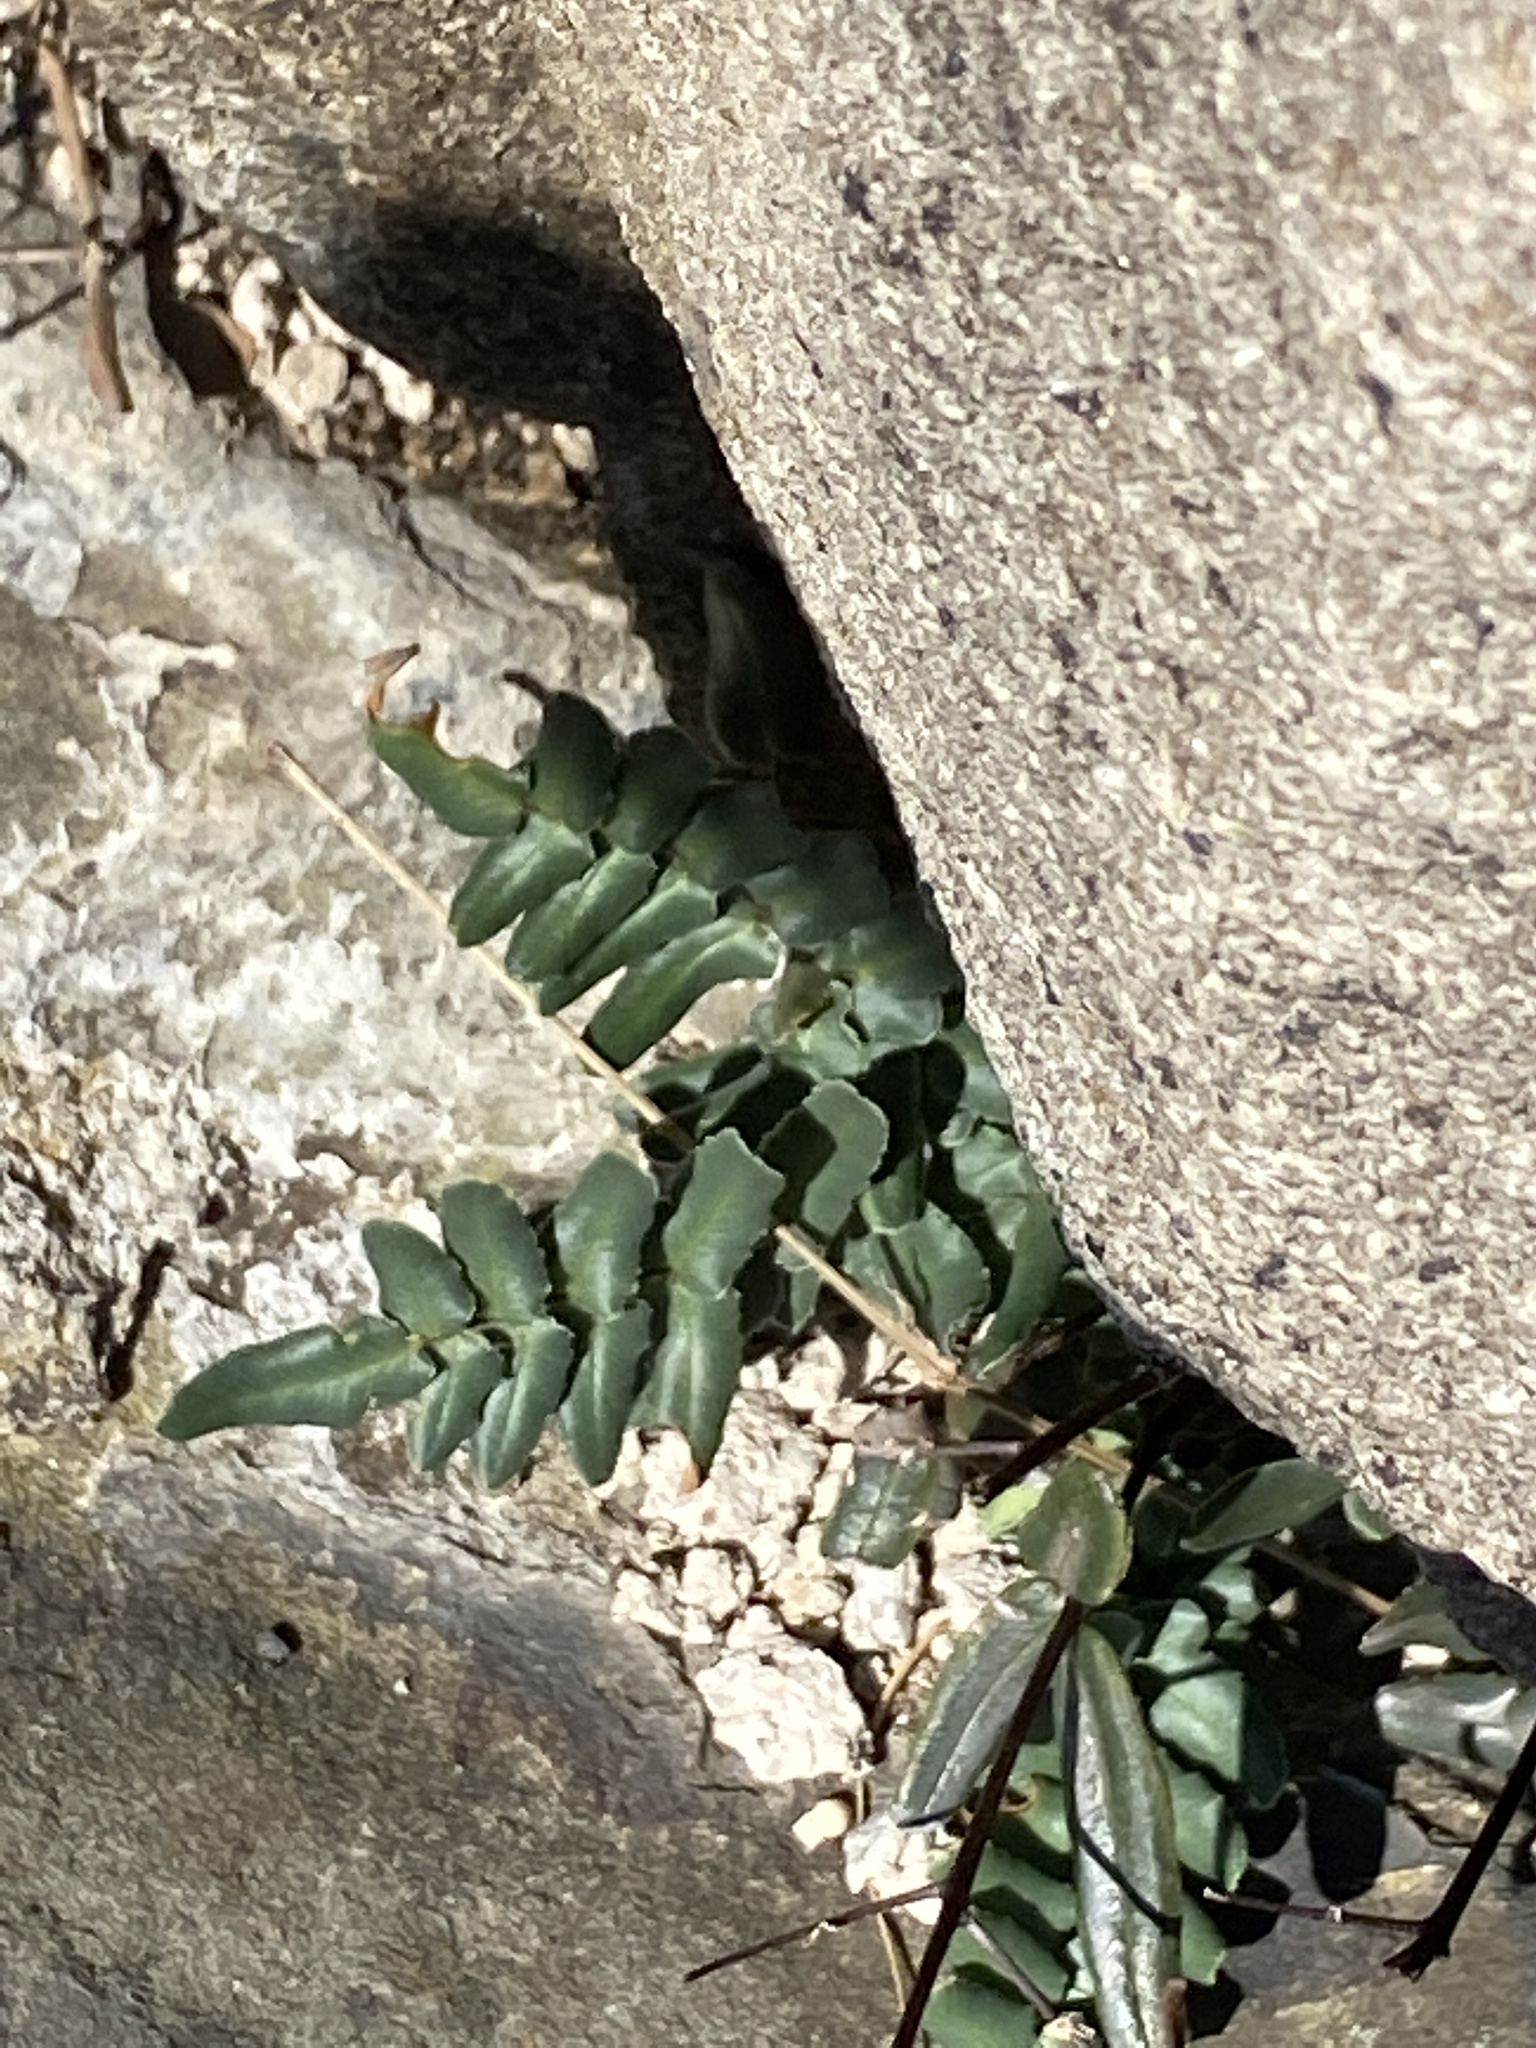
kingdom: Plantae
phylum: Tracheophyta
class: Polypodiopsida
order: Polypodiales
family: Pteridaceae
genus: Pellaea
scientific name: Pellaea atropurpurea
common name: Hairy cliffbrake
